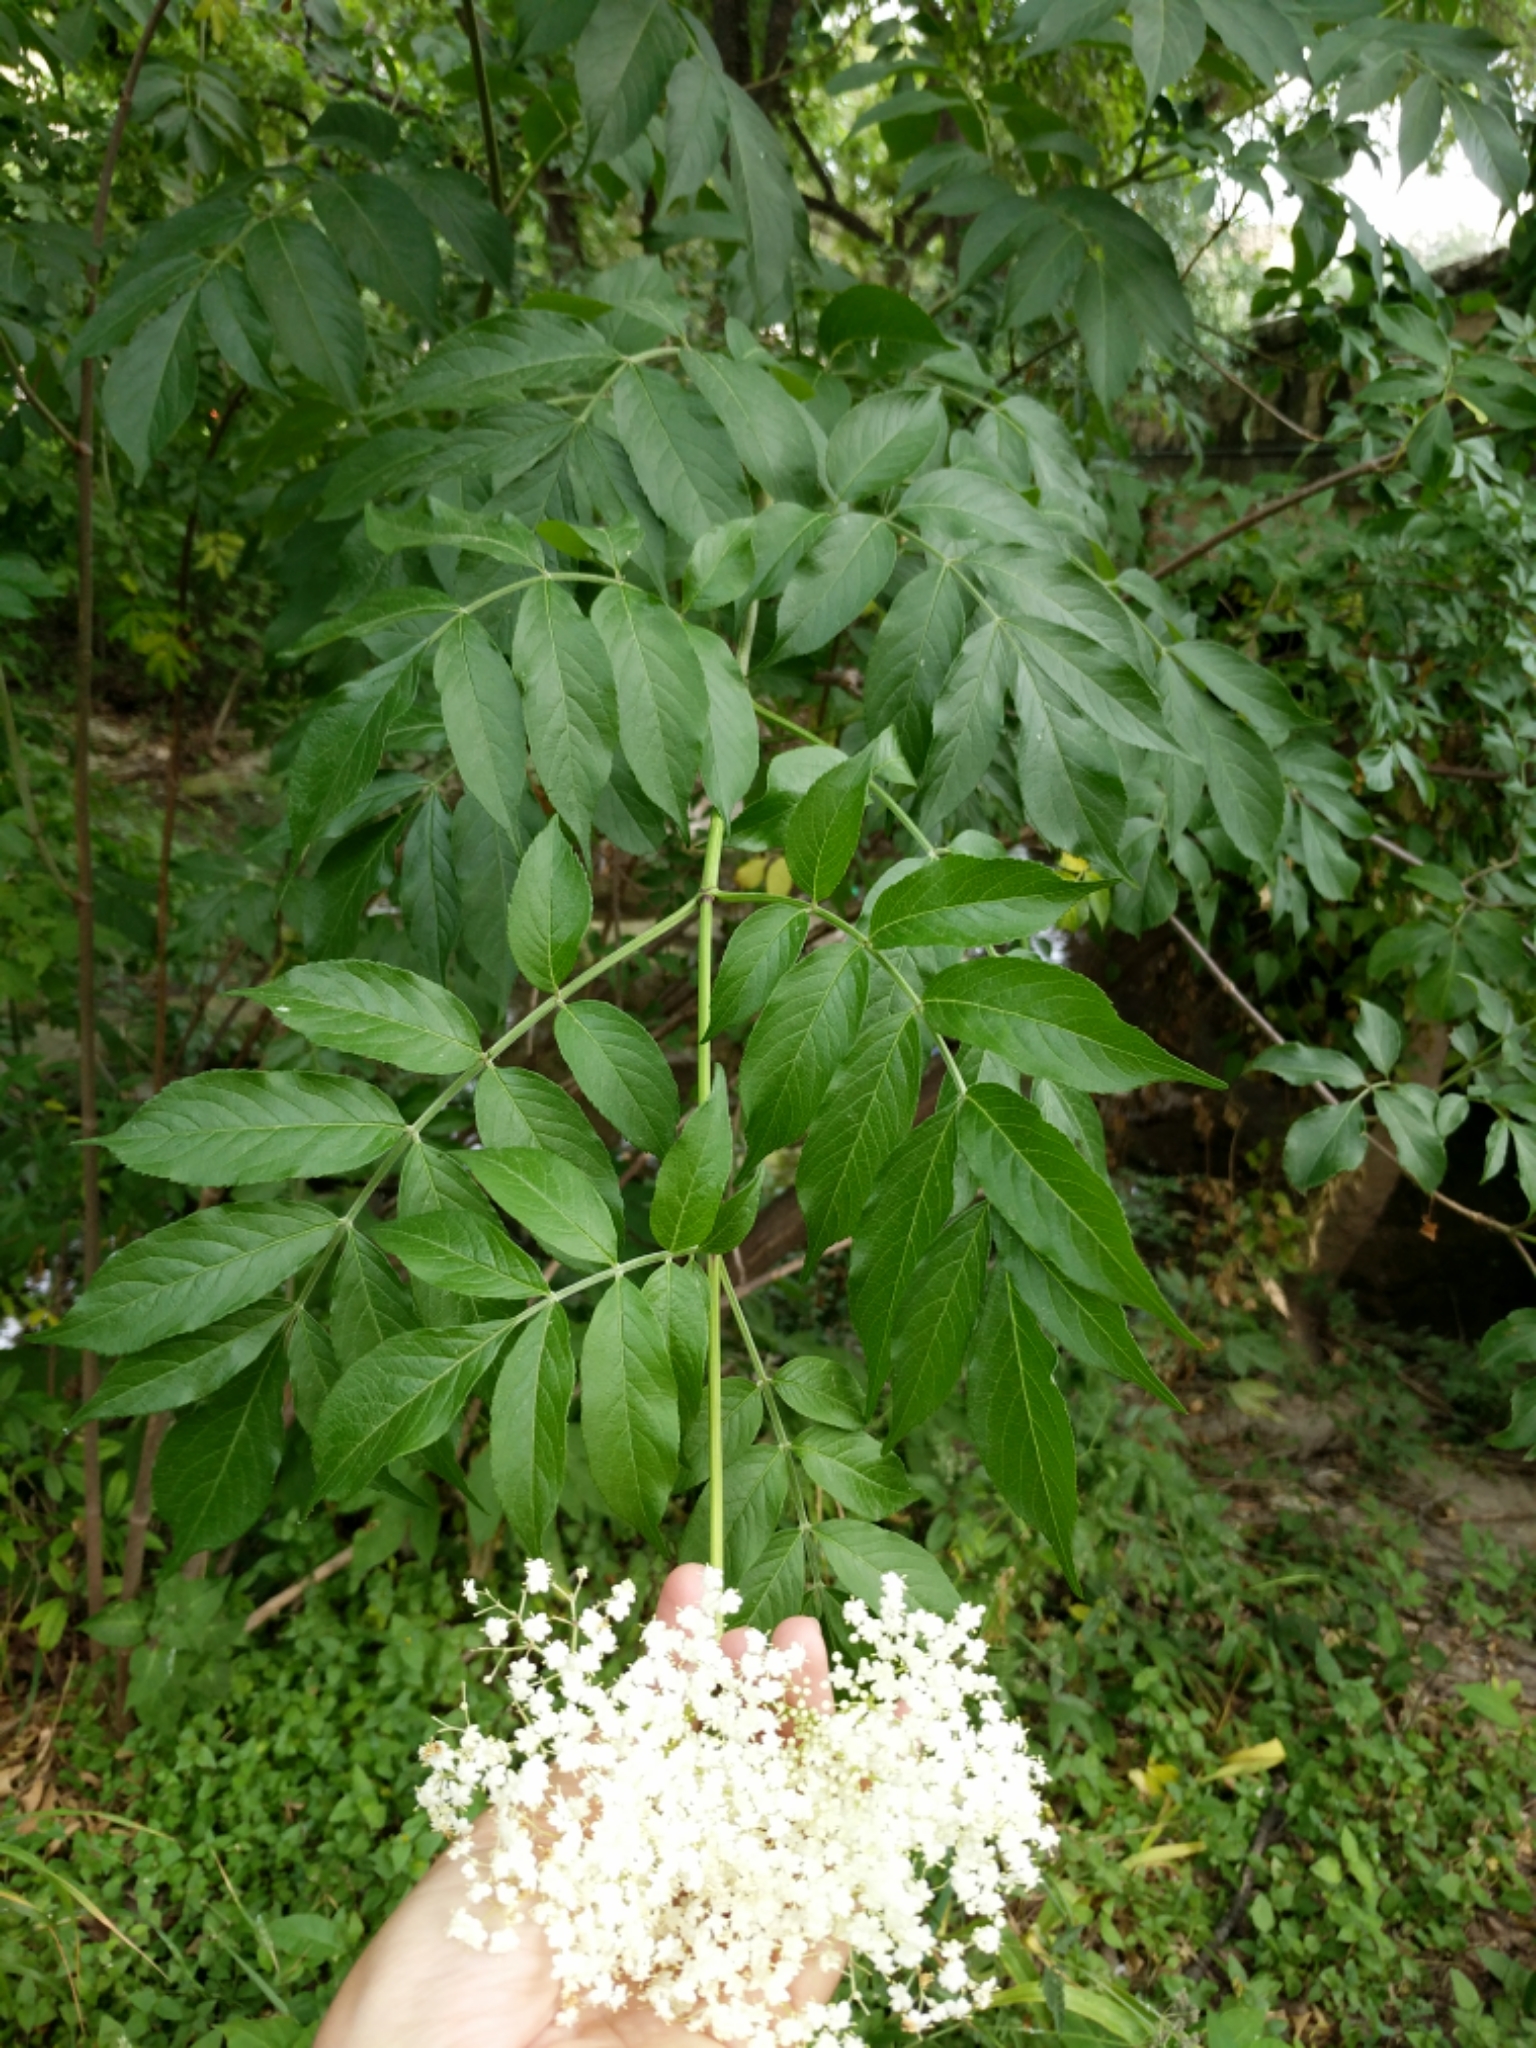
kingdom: Plantae
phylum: Tracheophyta
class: Magnoliopsida
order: Dipsacales
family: Viburnaceae
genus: Sambucus
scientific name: Sambucus canadensis
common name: American elder
